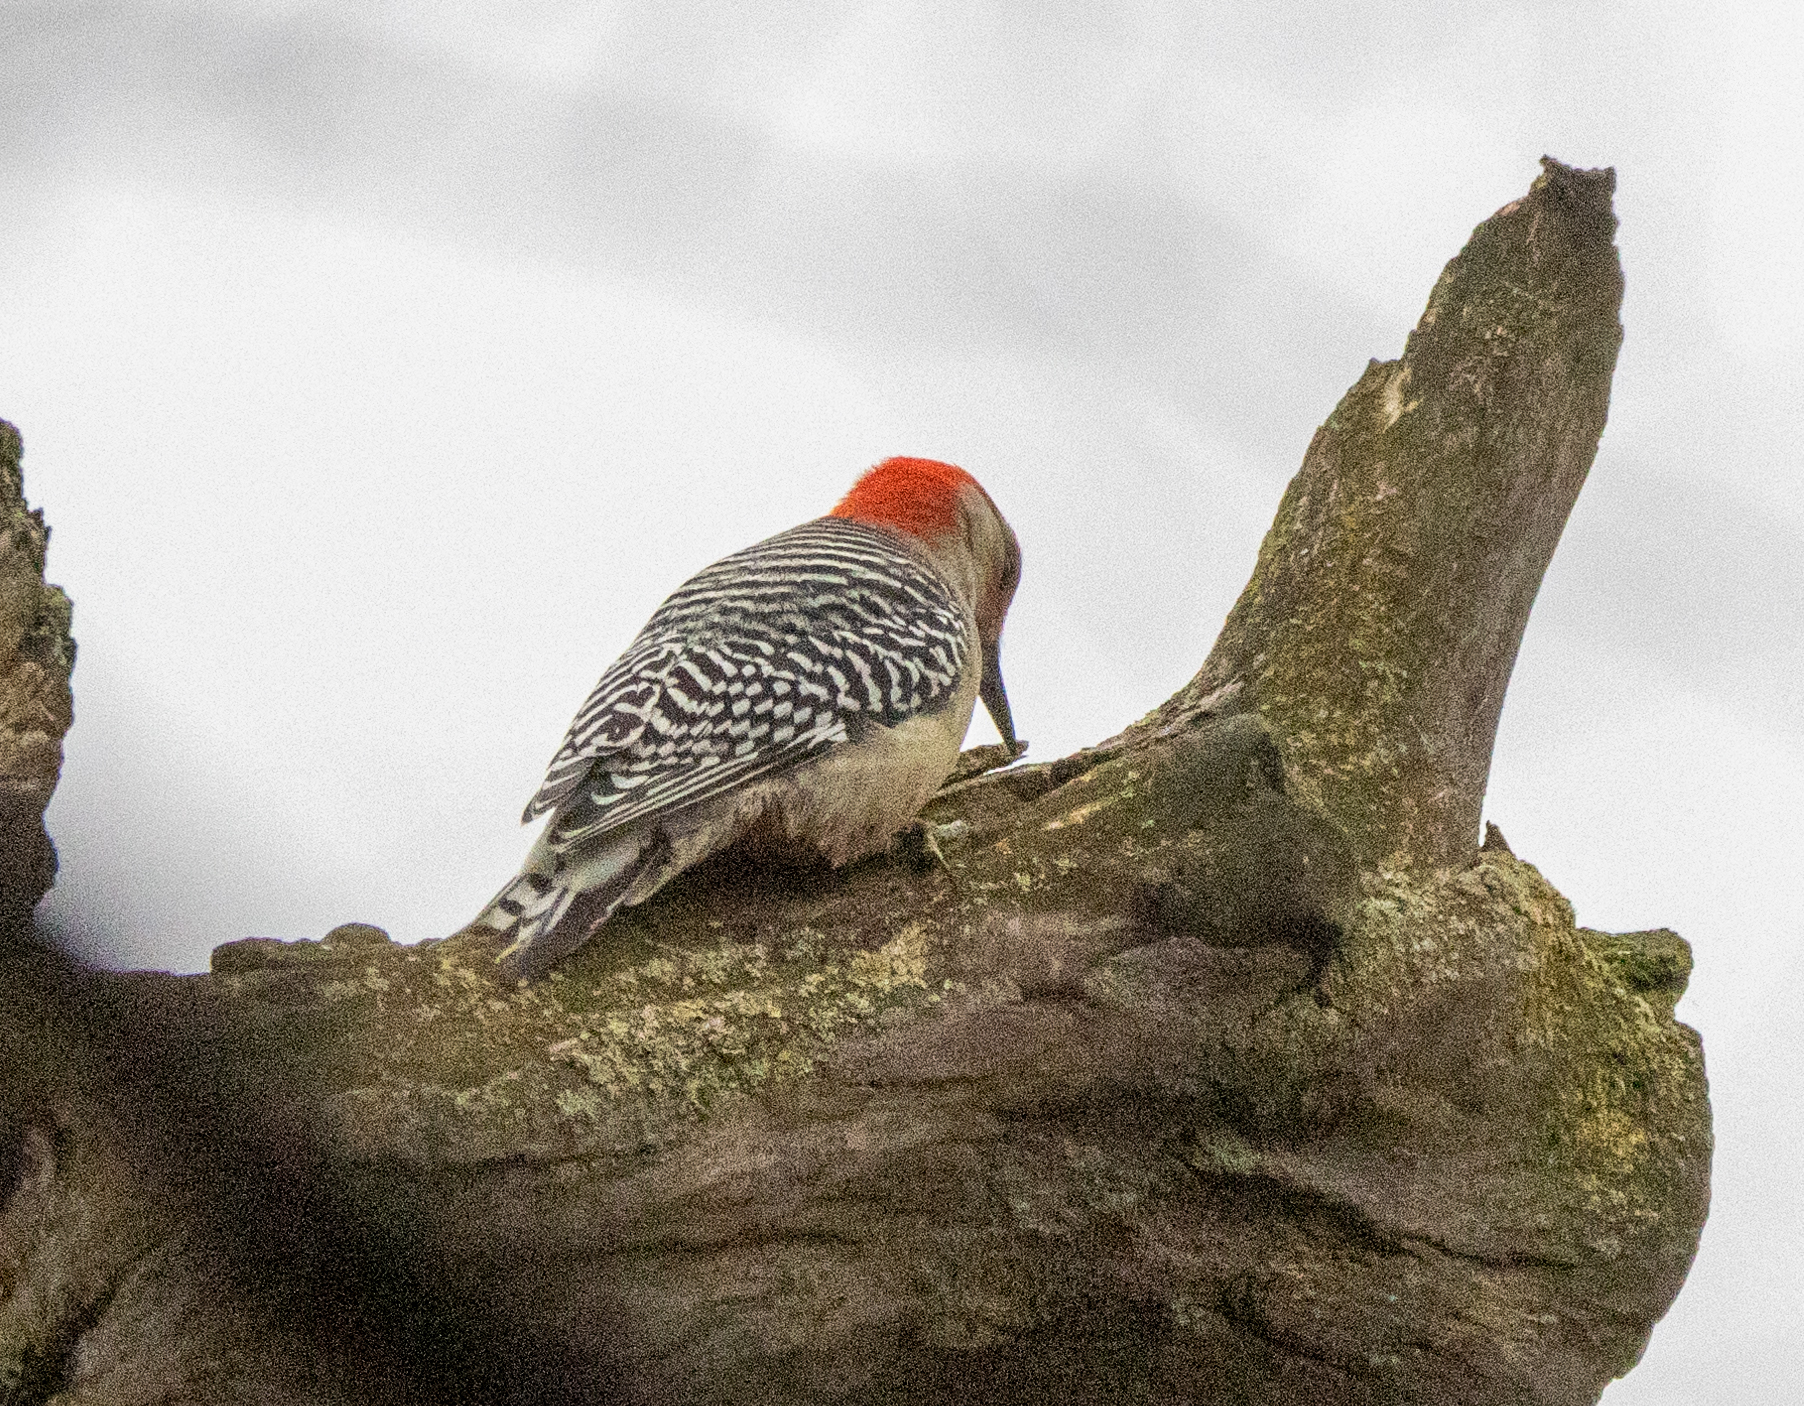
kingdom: Animalia
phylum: Chordata
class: Aves
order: Piciformes
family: Picidae
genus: Melanerpes
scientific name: Melanerpes carolinus
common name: Red-bellied woodpecker
